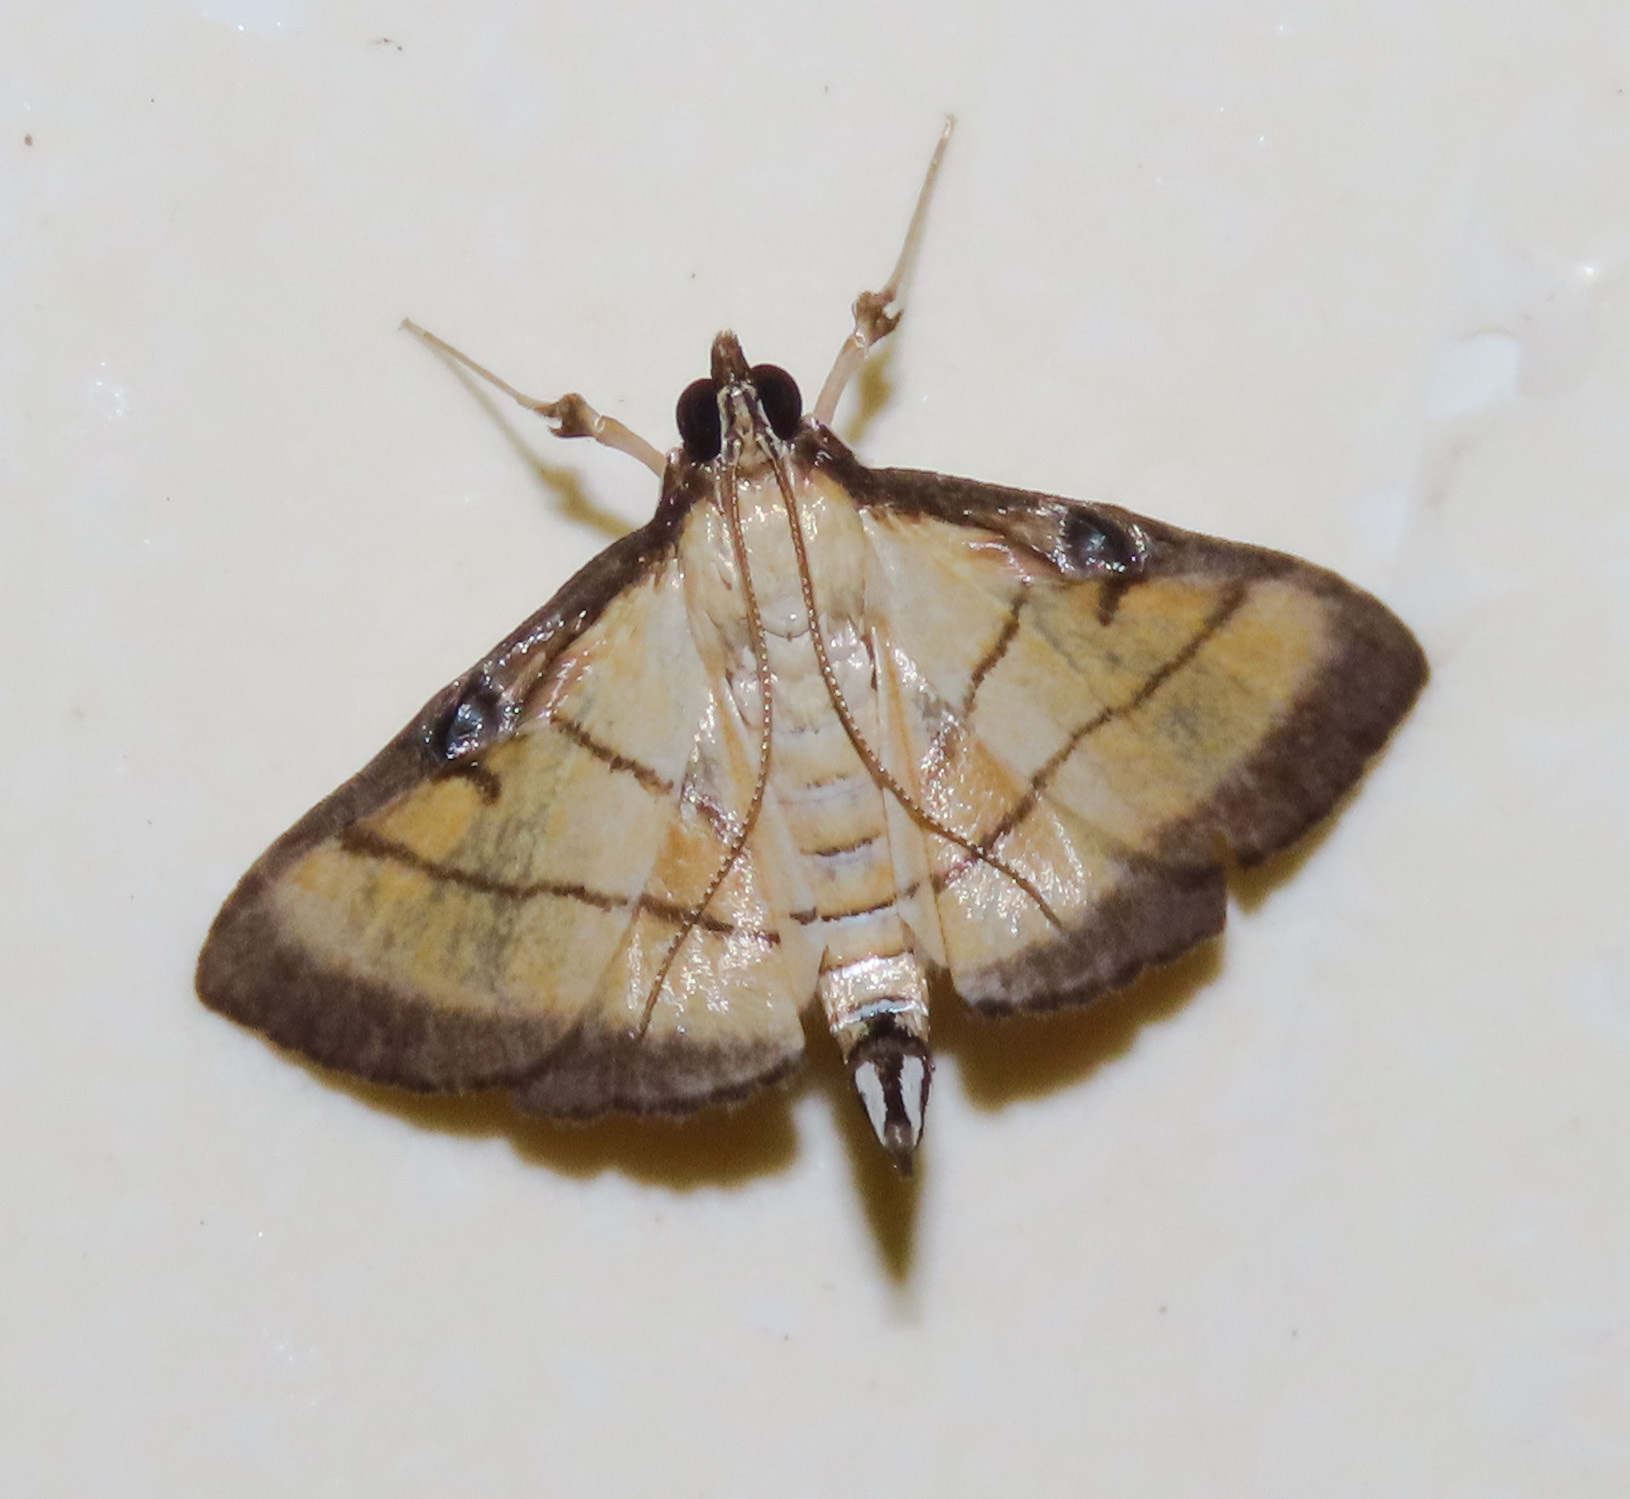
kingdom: Animalia
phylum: Arthropoda
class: Insecta
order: Lepidoptera
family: Crambidae
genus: Cnaphalocrocis
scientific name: Cnaphalocrocis medinalis
